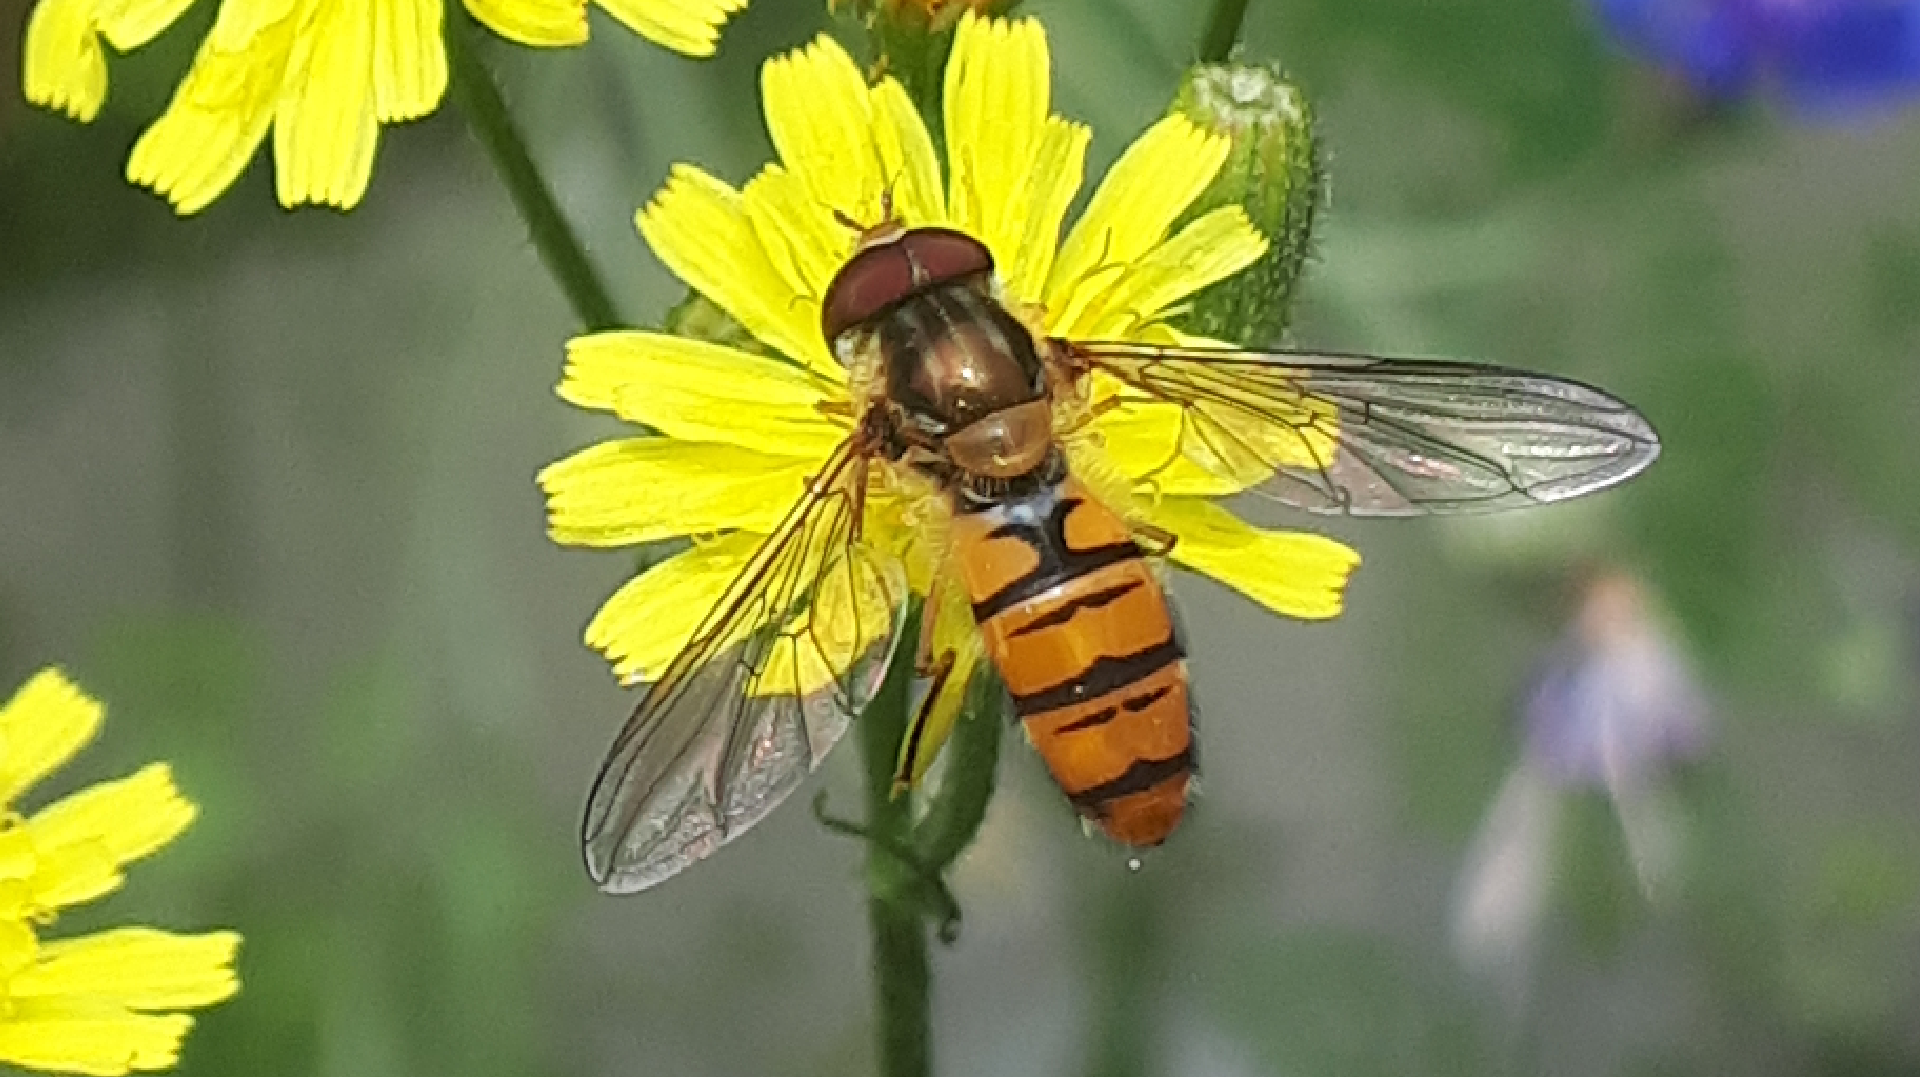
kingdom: Animalia
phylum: Arthropoda
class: Insecta
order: Diptera
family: Syrphidae
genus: Episyrphus
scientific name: Episyrphus balteatus
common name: Marmalade hoverfly
